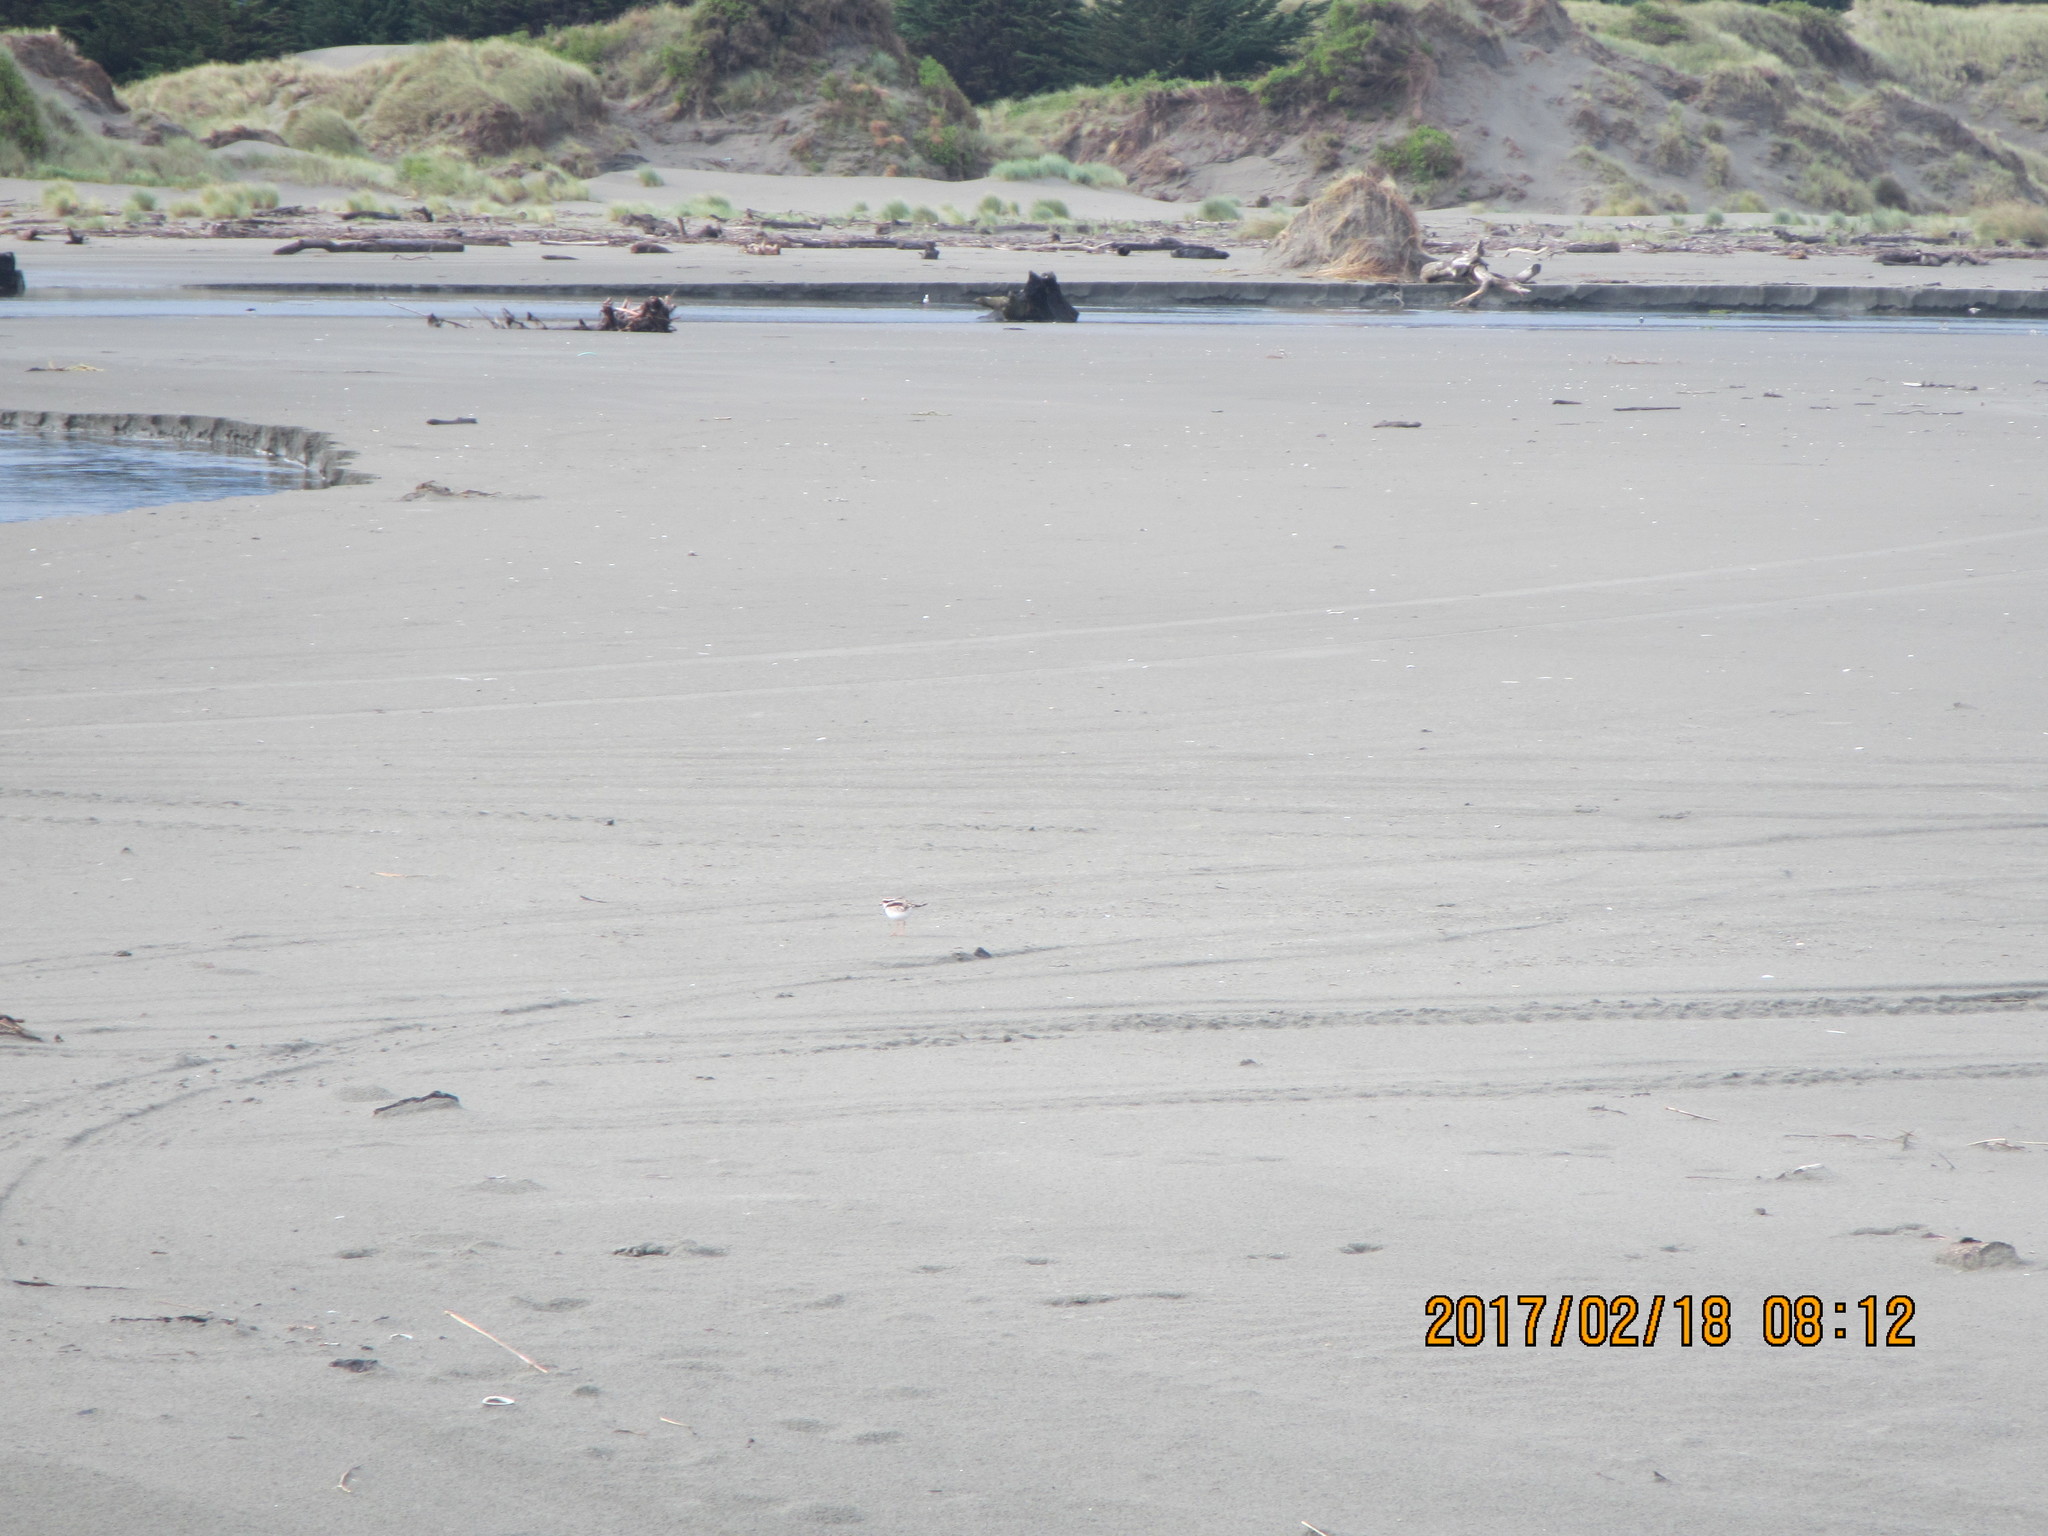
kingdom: Animalia
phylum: Chordata
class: Aves
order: Charadriiformes
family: Charadriidae
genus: Elseyornis
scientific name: Elseyornis melanops
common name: Black-fronted dotterel
